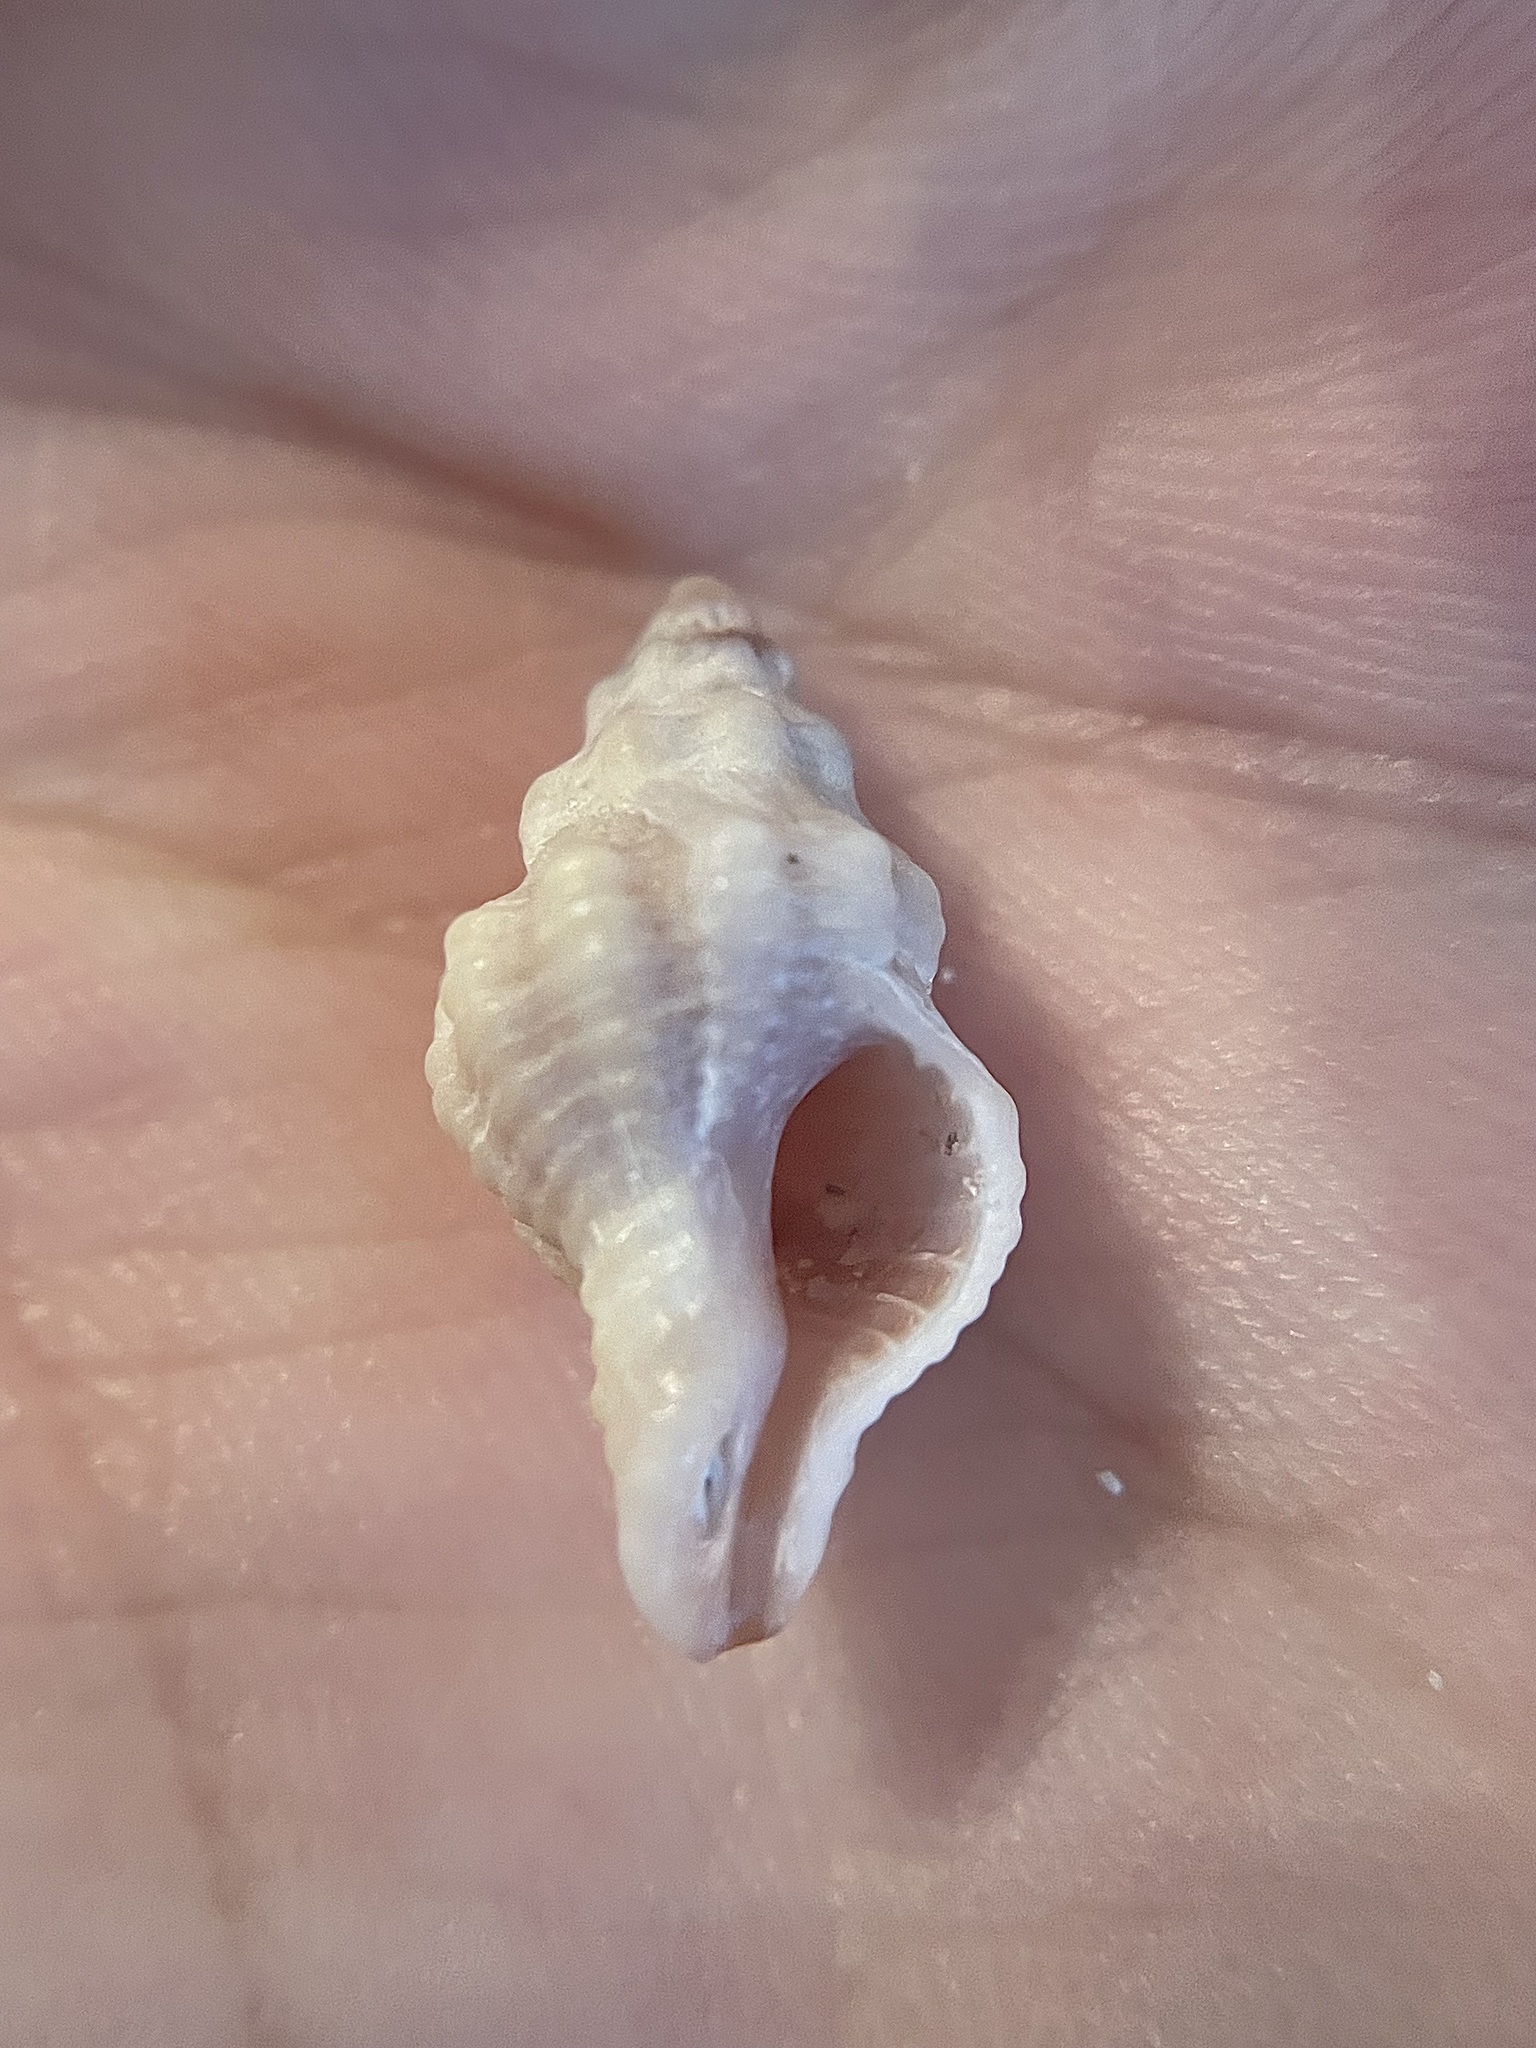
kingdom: Animalia
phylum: Mollusca
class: Gastropoda
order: Neogastropoda
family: Muricidae
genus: Calotrophon
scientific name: Calotrophon ostrearum
